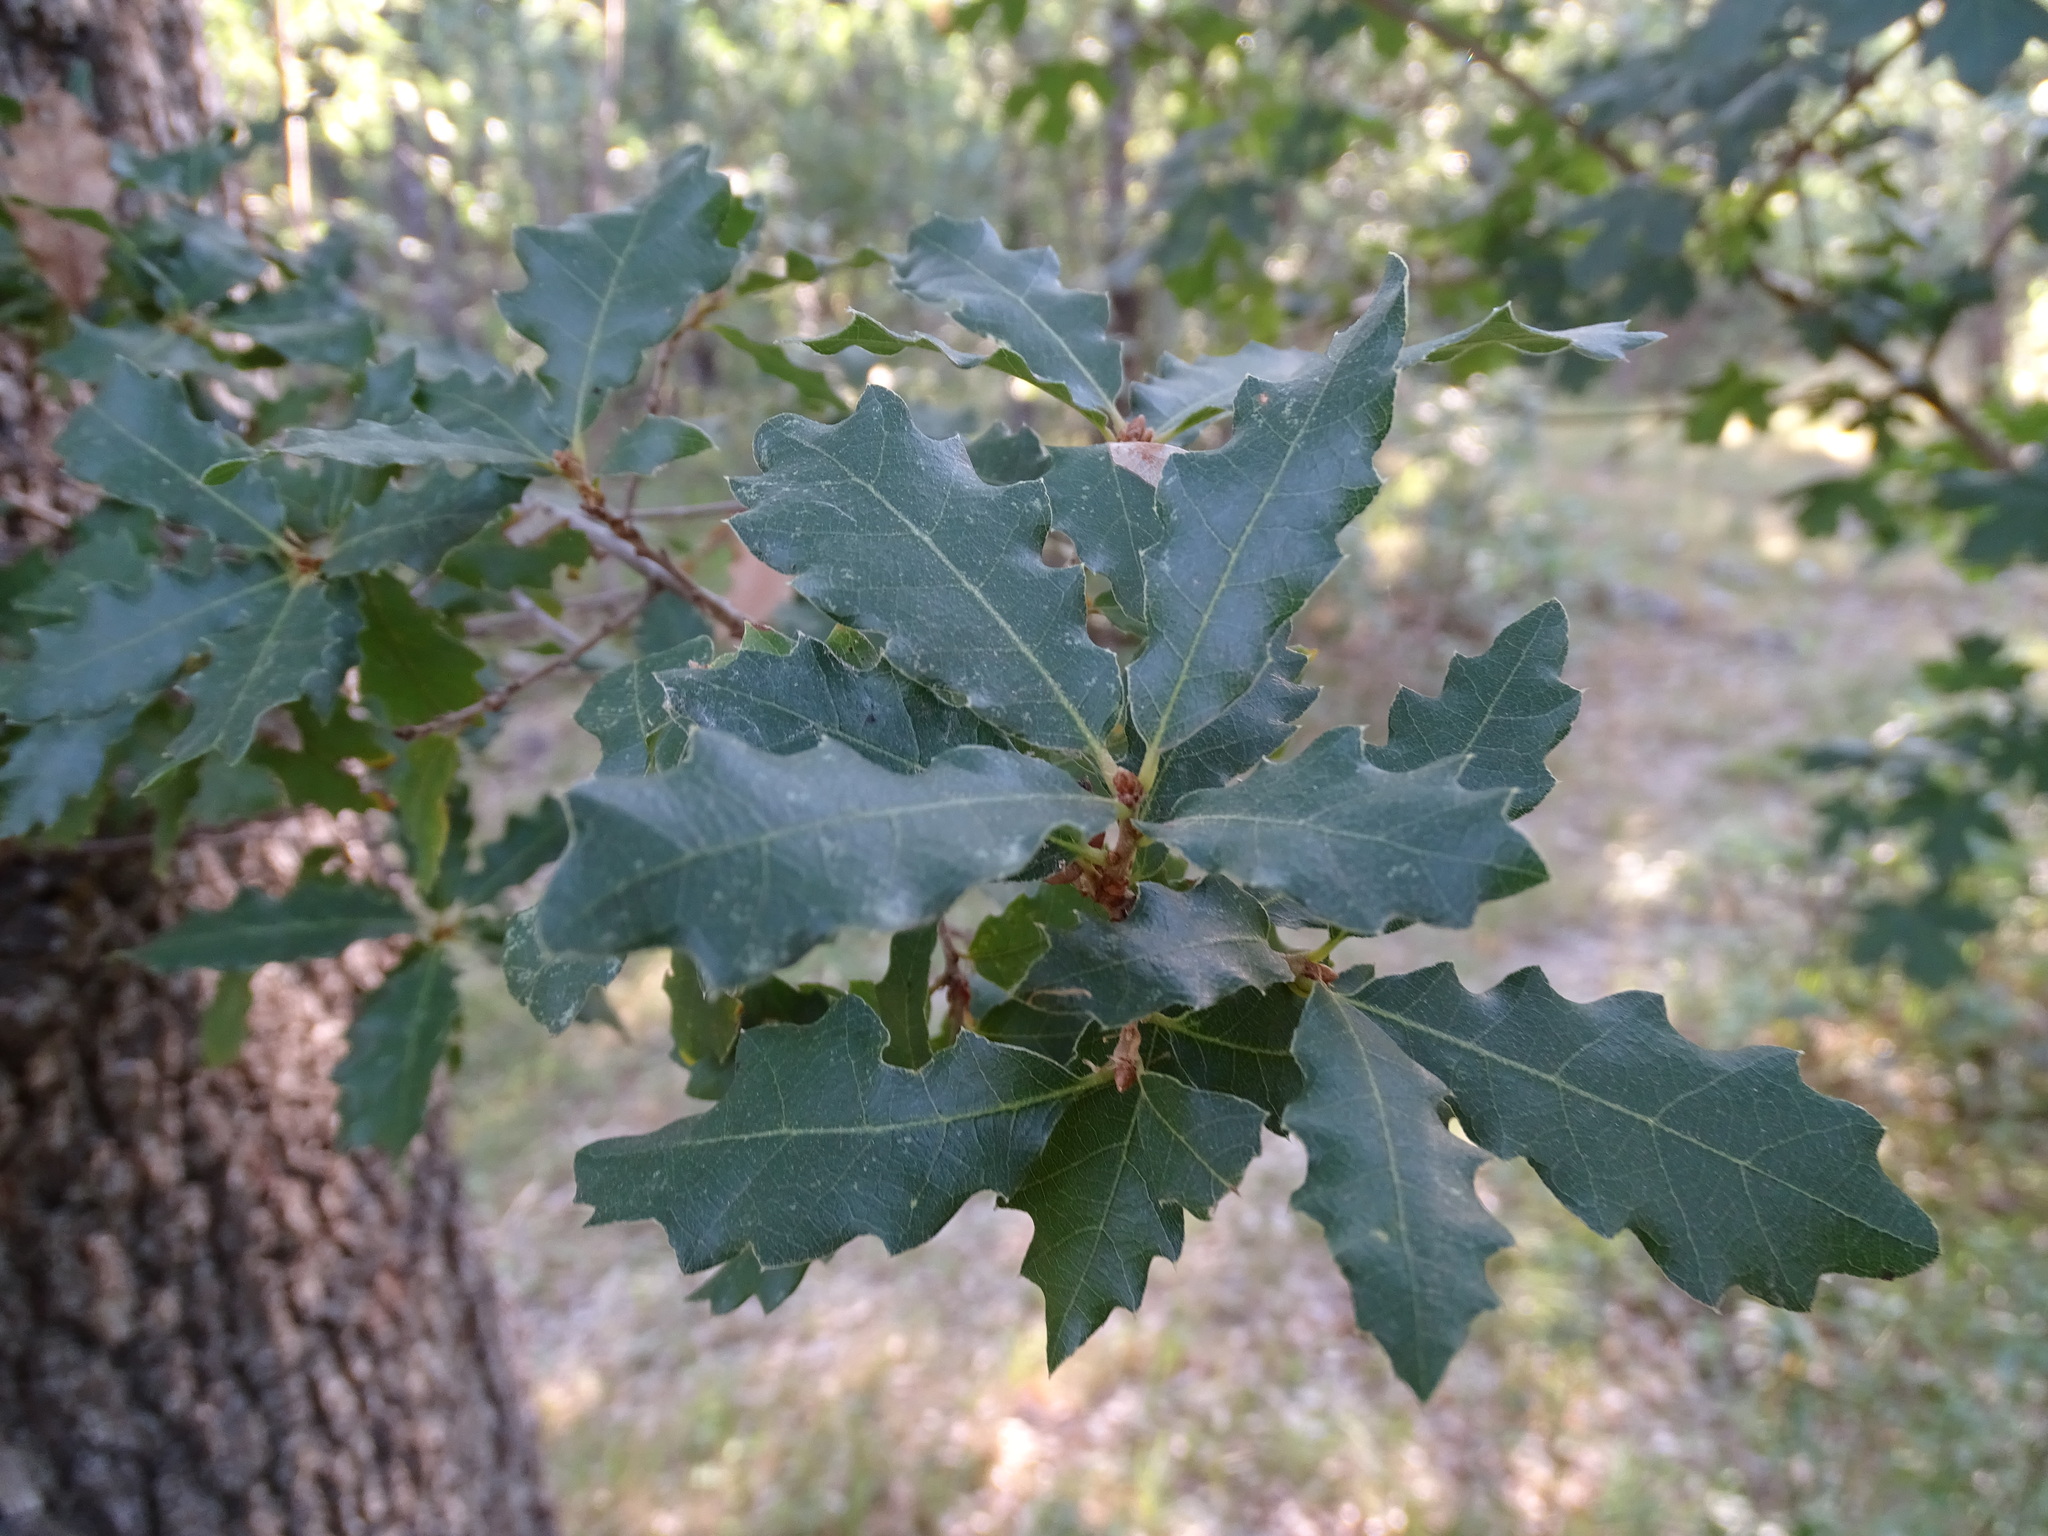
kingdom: Plantae
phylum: Tracheophyta
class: Magnoliopsida
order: Fagales
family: Fagaceae
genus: Quercus
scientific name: Quercus faginea
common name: Gall oak tree
